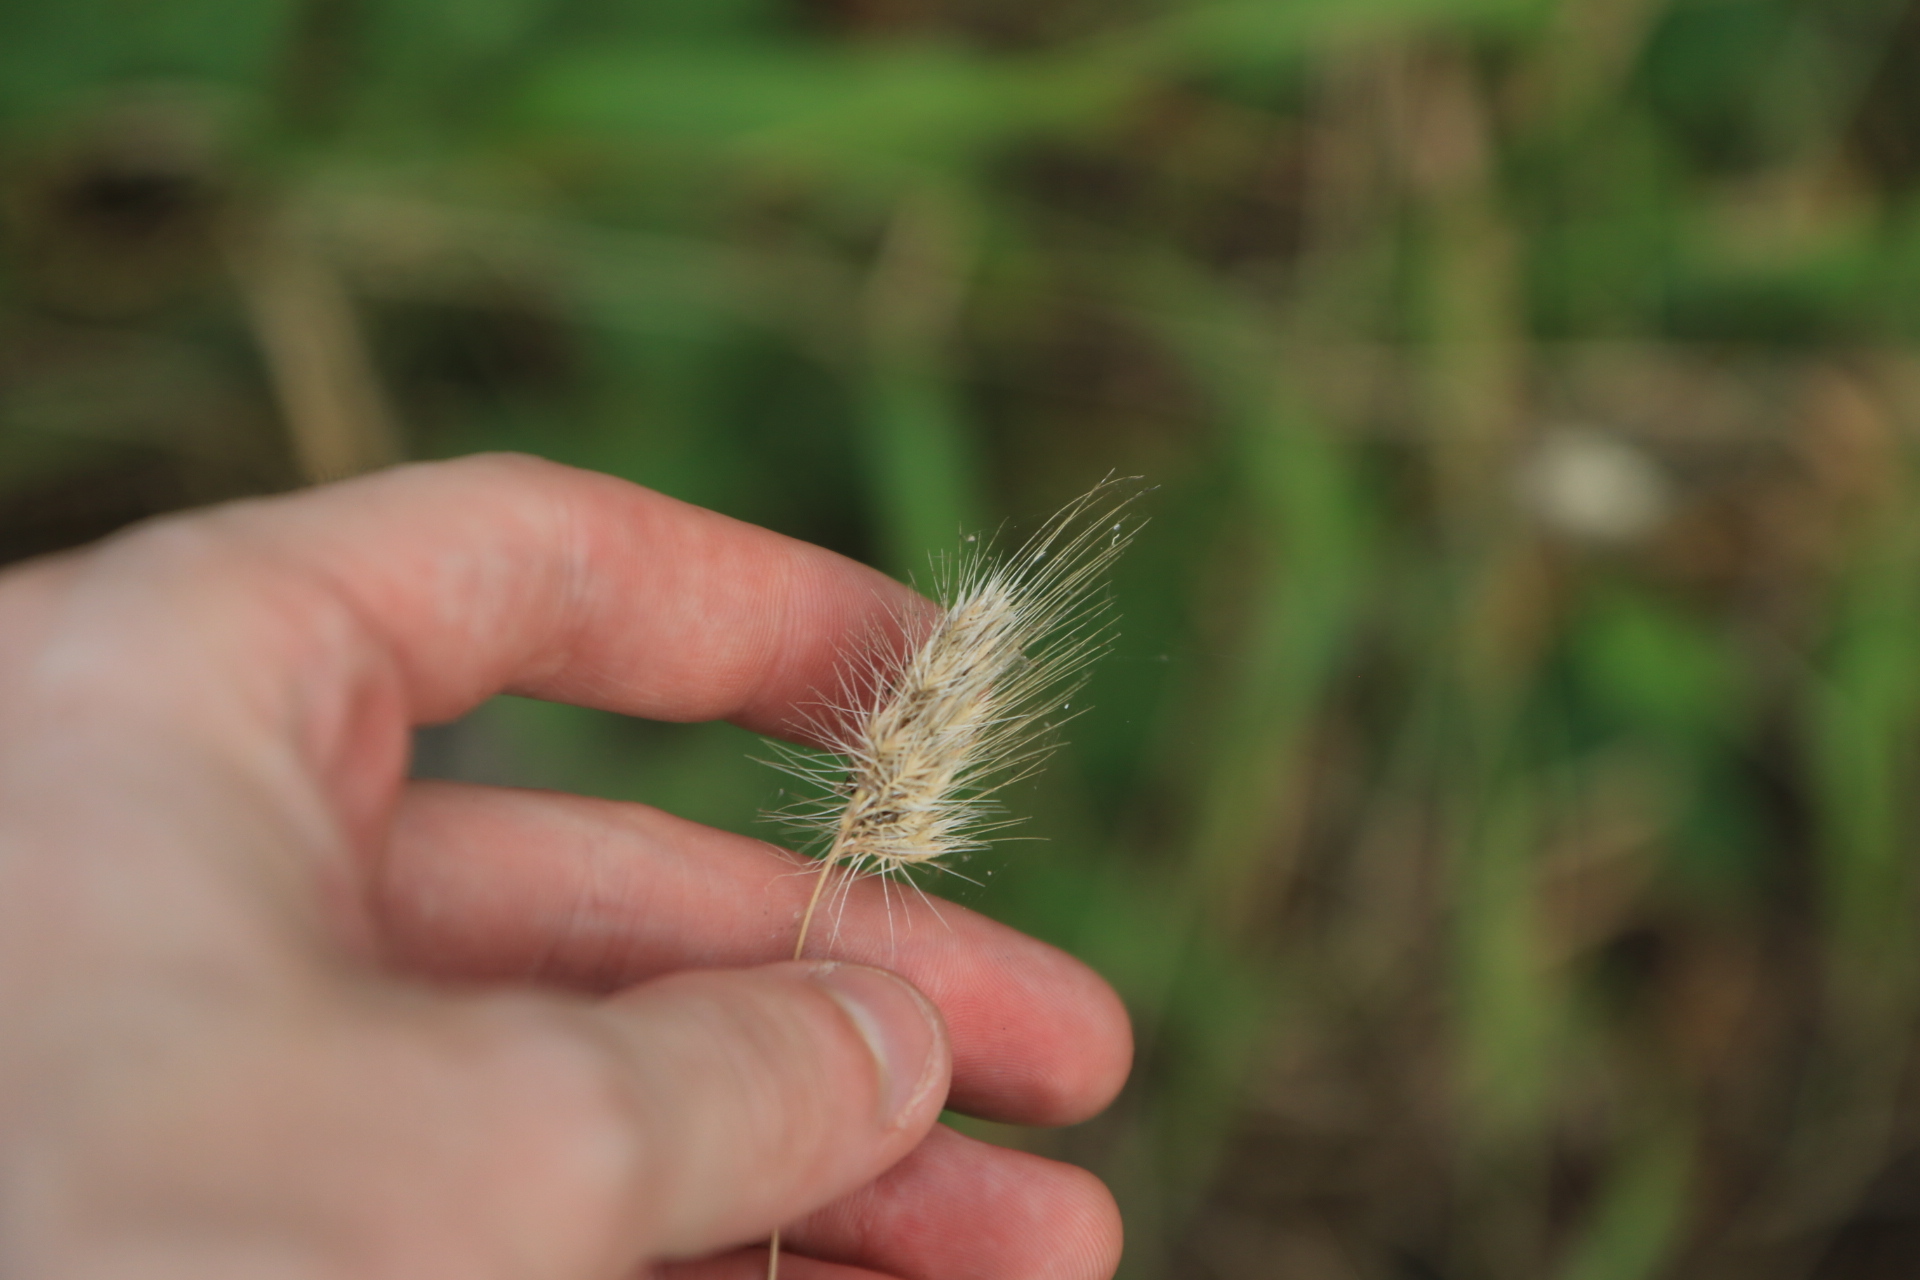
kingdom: Plantae
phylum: Tracheophyta
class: Liliopsida
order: Poales
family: Poaceae
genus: Cynosurus
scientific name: Cynosurus echinatus
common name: Rough dog's-tail
